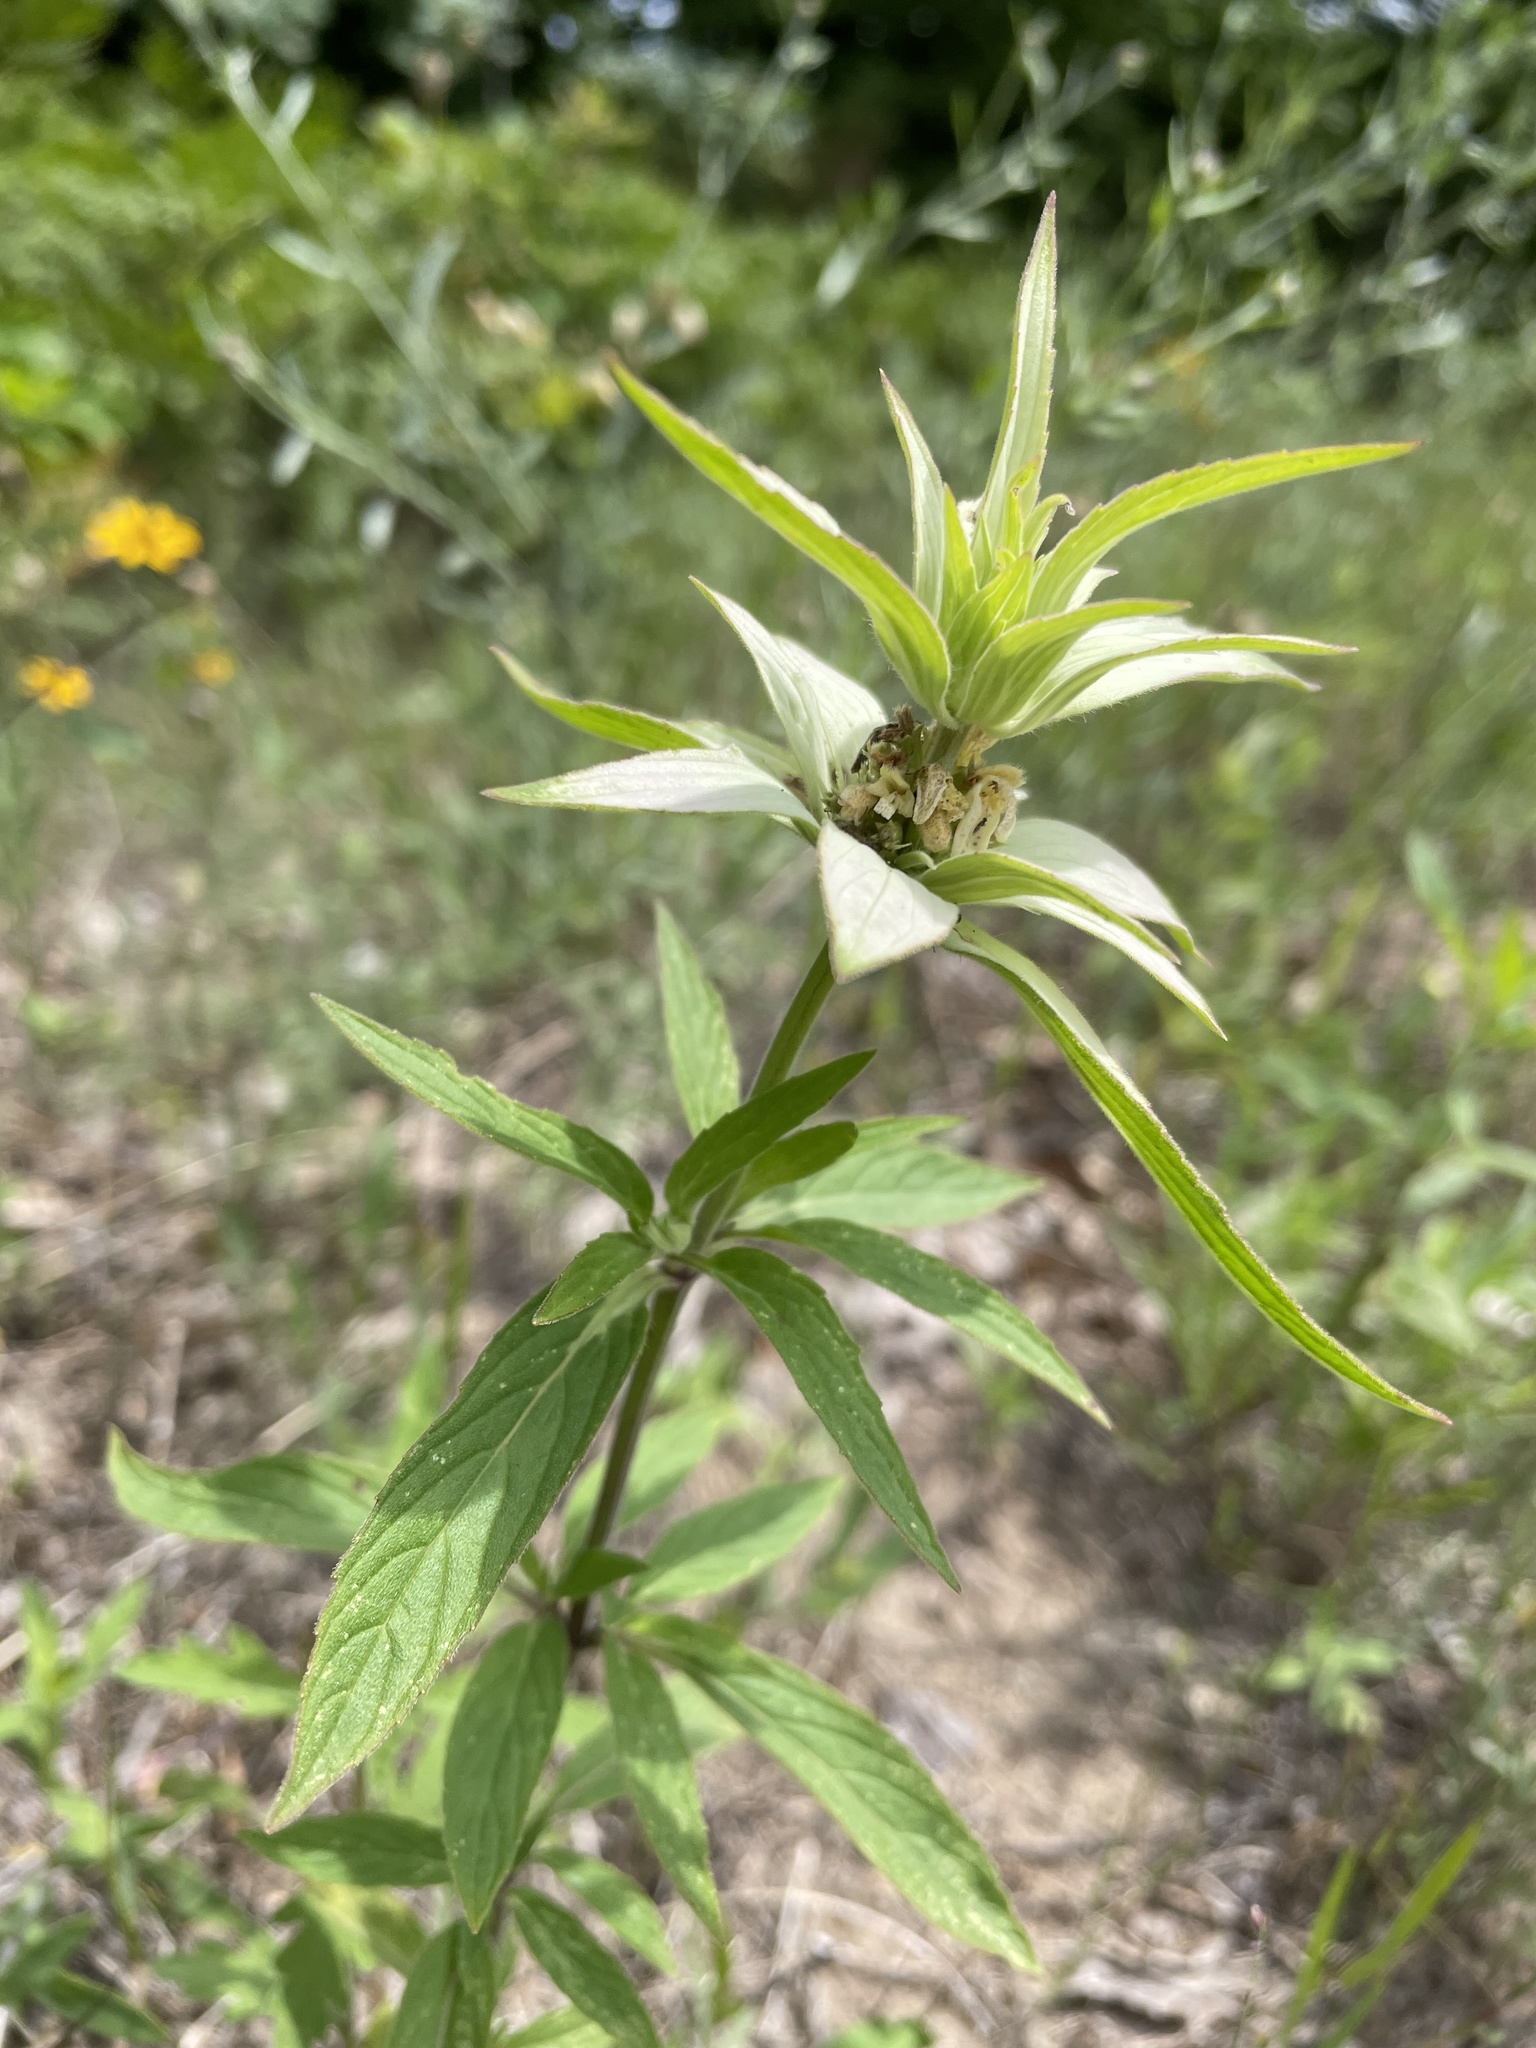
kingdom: Plantae
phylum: Tracheophyta
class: Magnoliopsida
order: Lamiales
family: Lamiaceae
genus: Monarda
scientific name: Monarda punctata
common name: Dotted monarda
